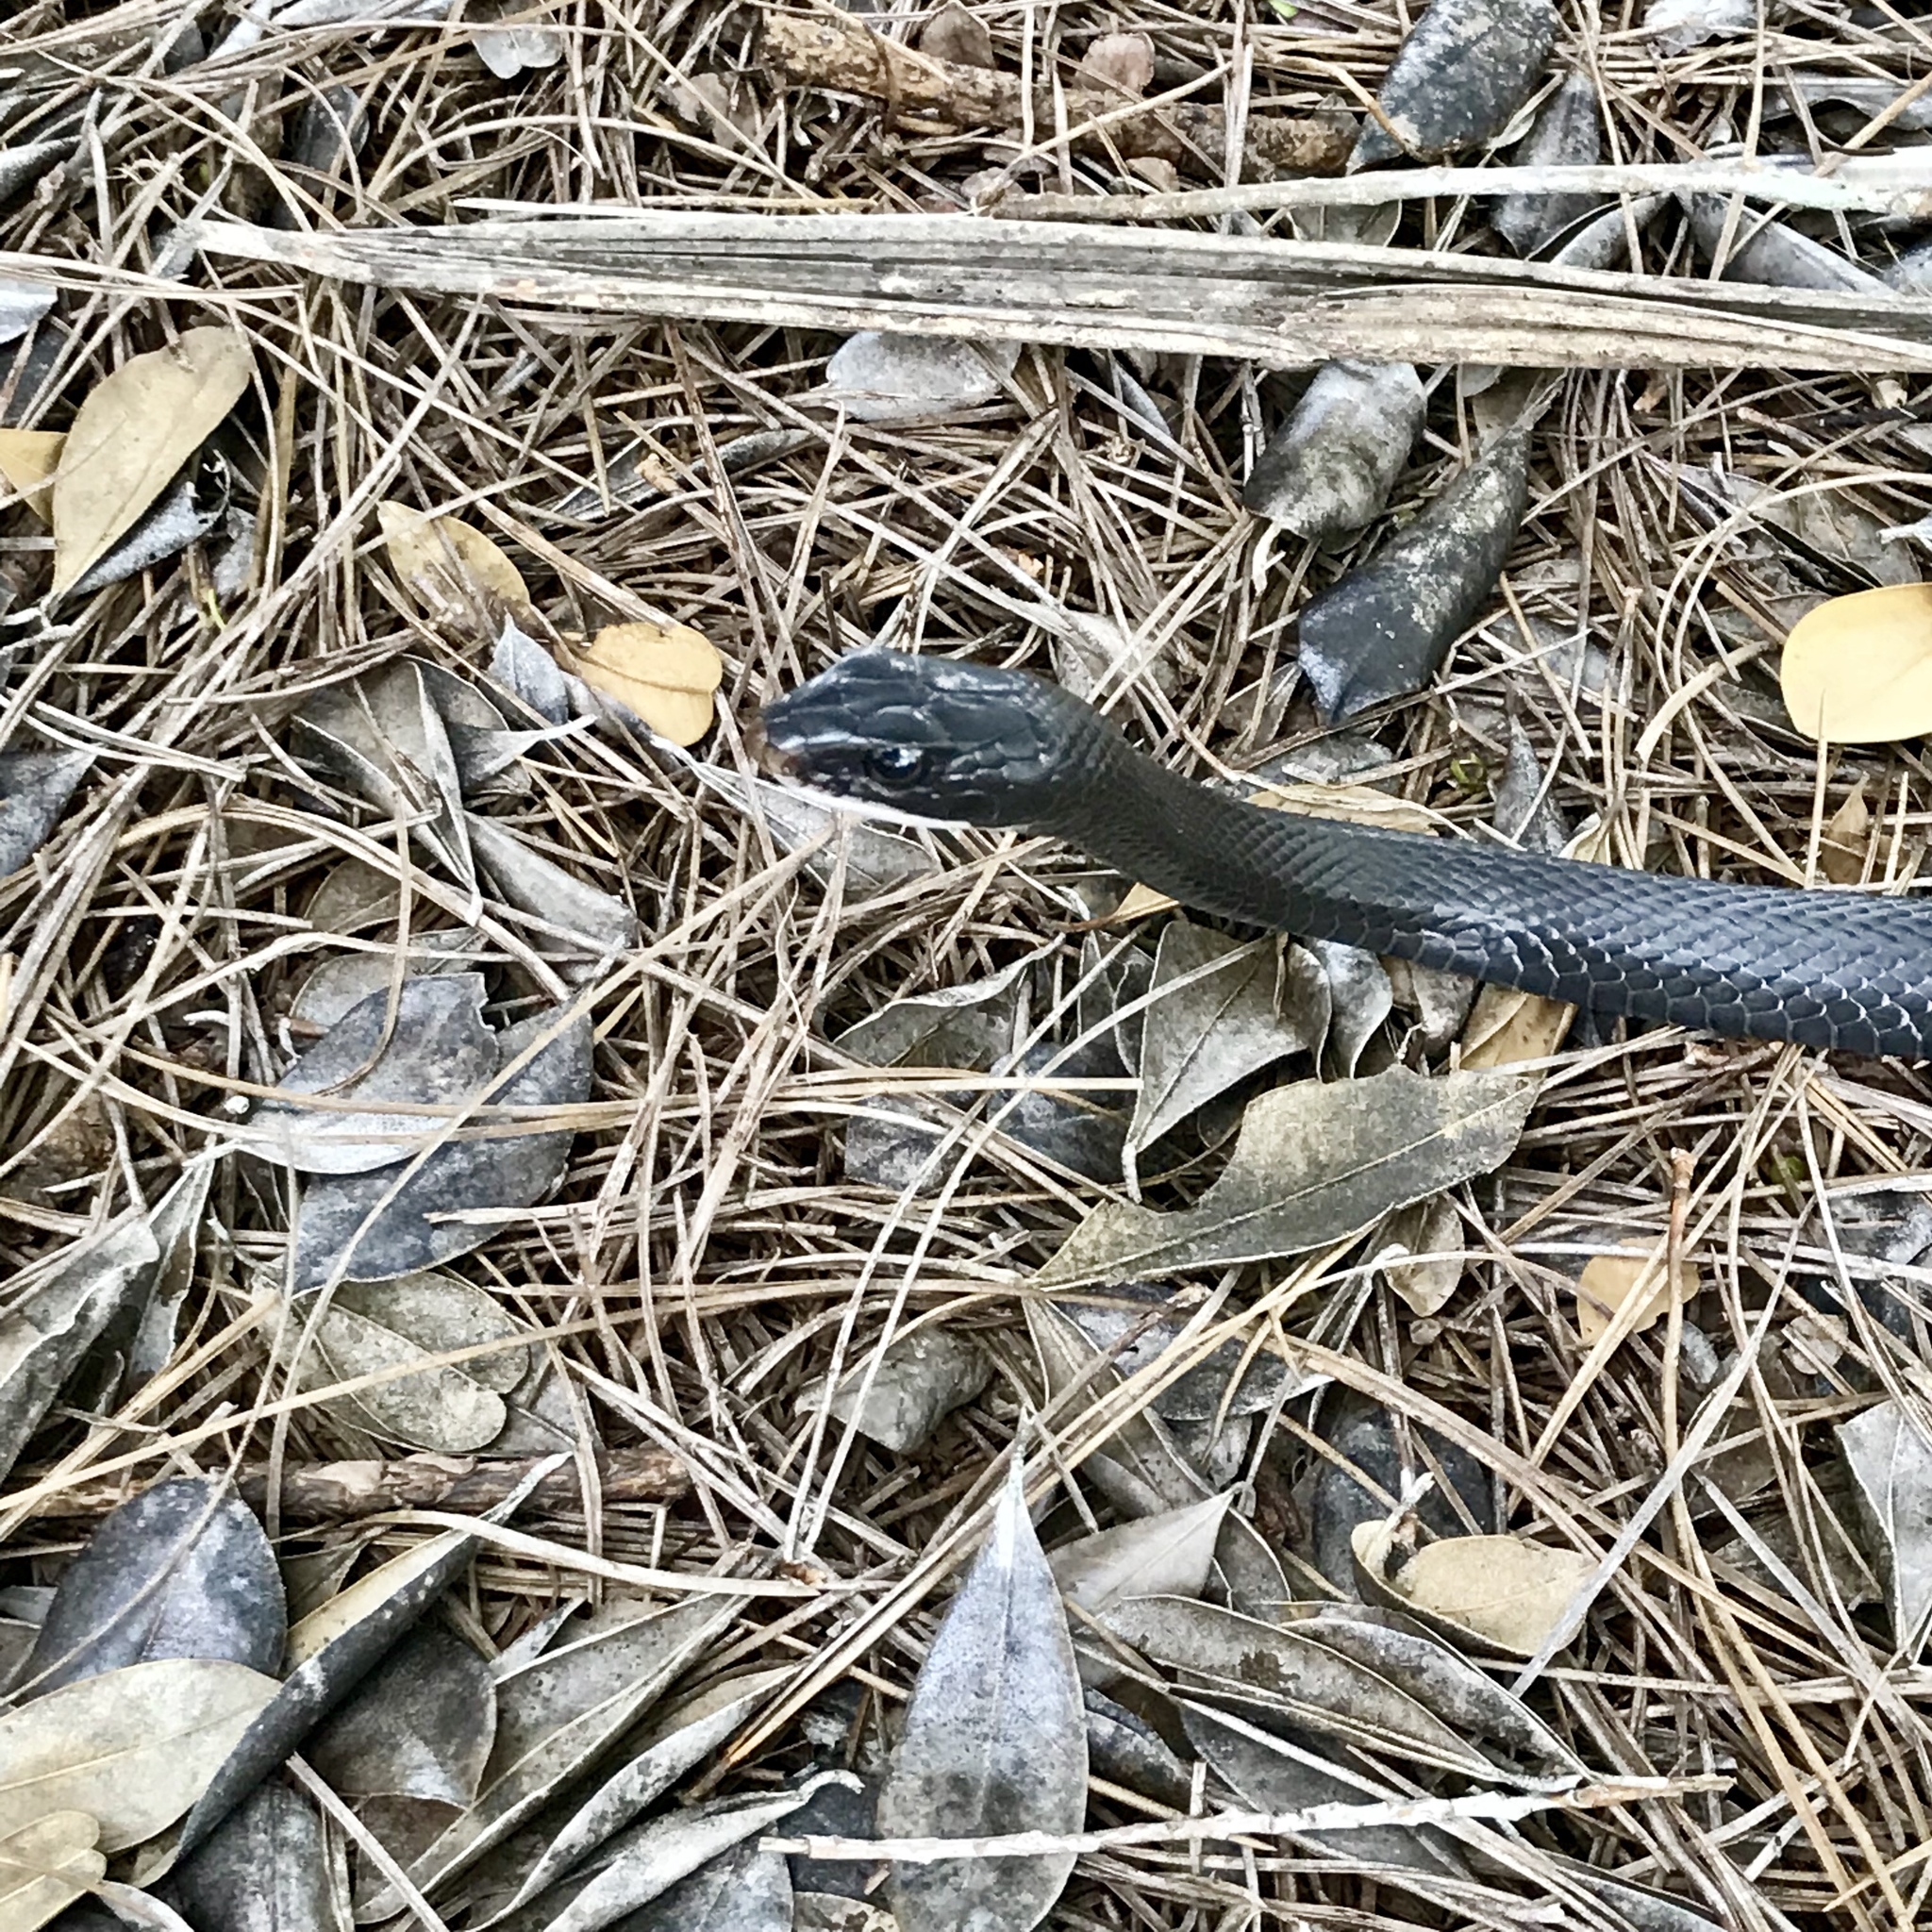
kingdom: Animalia
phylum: Chordata
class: Squamata
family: Colubridae
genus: Coluber
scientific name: Coluber constrictor
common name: Eastern racer
